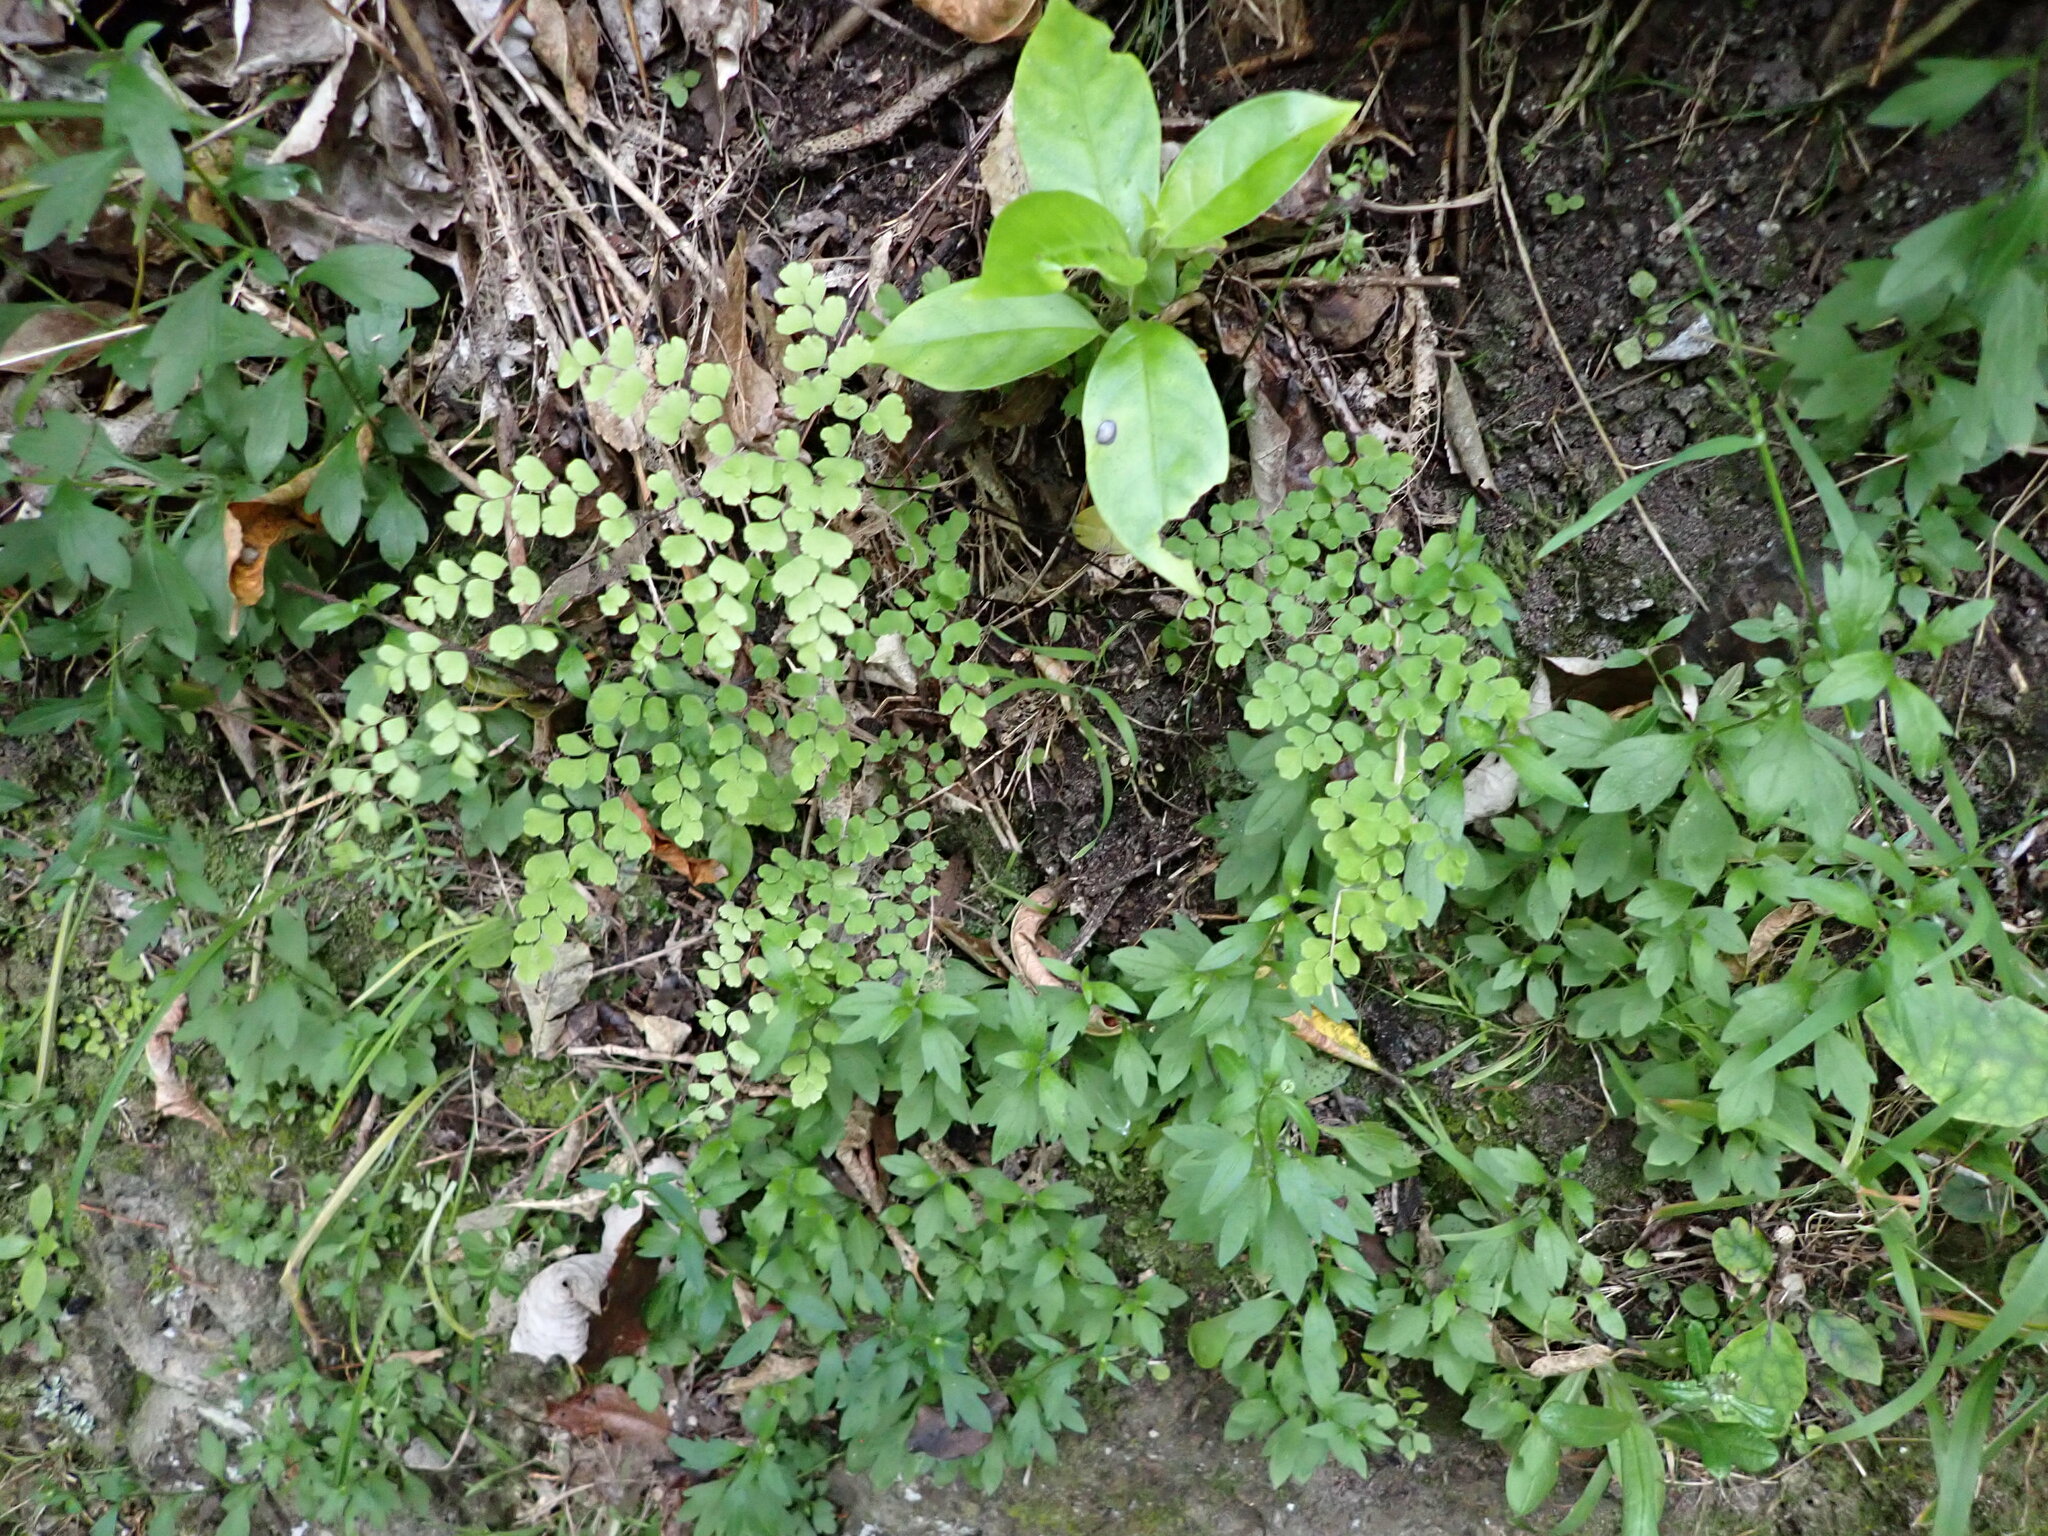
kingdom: Plantae
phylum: Tracheophyta
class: Polypodiopsida
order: Polypodiales
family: Pteridaceae
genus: Adiantum
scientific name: Adiantum raddianum
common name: Delta maidenhair fern
